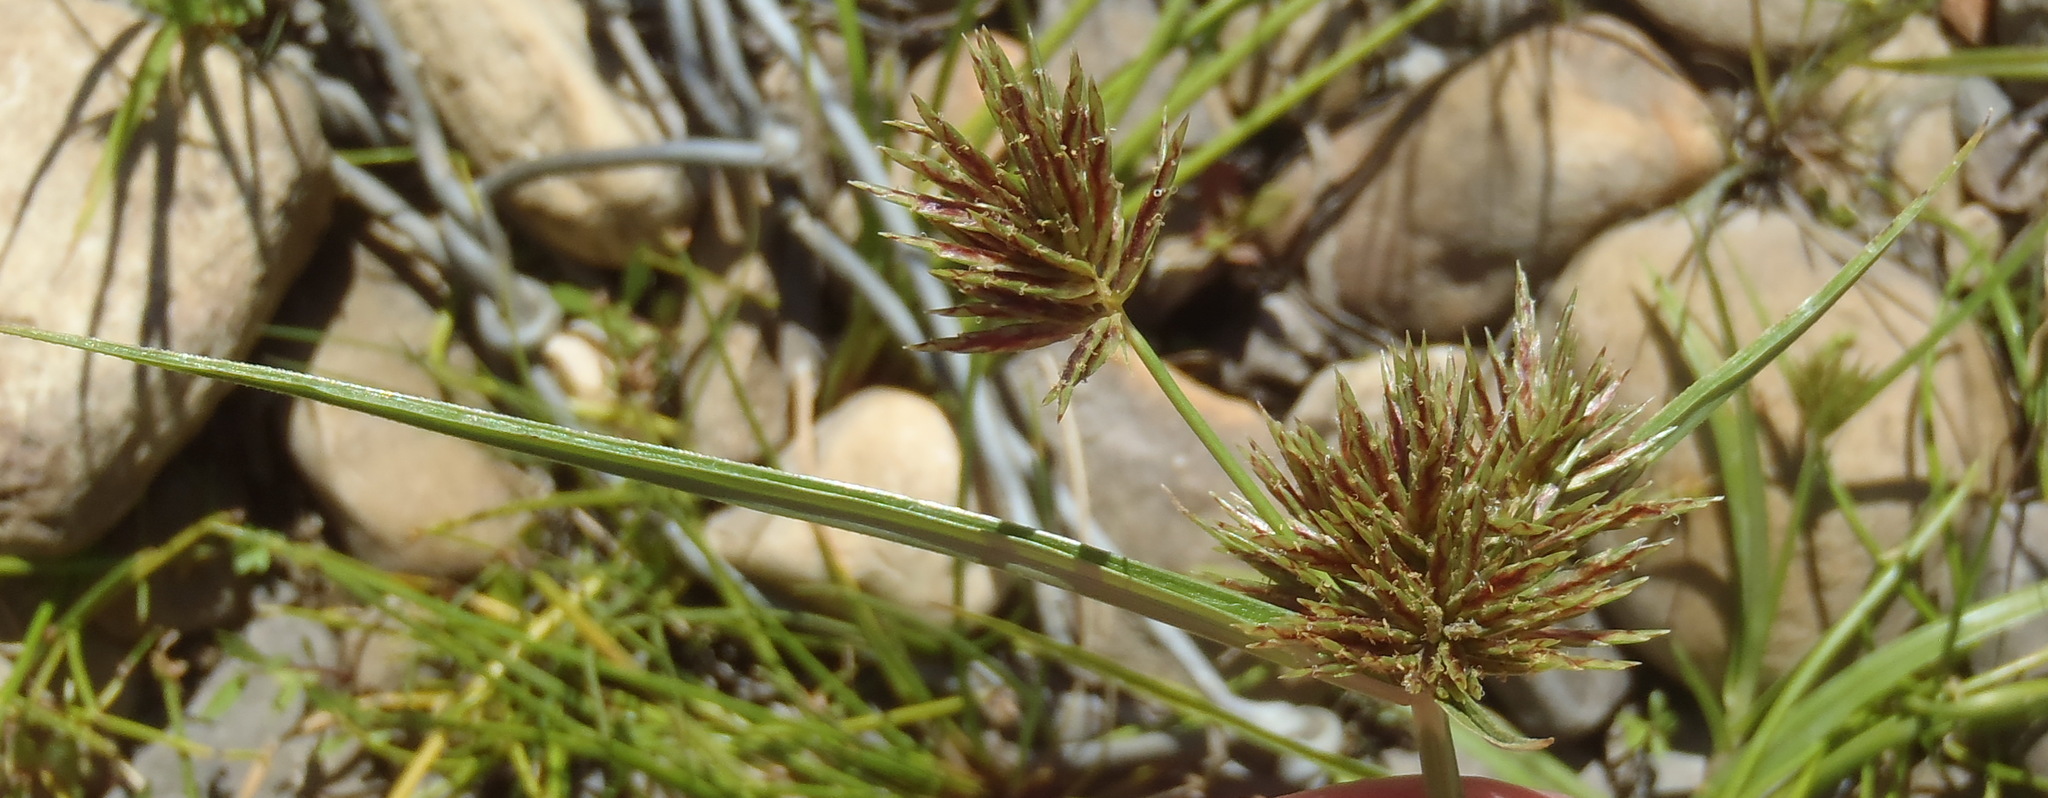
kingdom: Plantae
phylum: Tracheophyta
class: Liliopsida
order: Poales
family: Cyperaceae
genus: Cyperus
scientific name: Cyperus congestus
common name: Dense flat sedge
